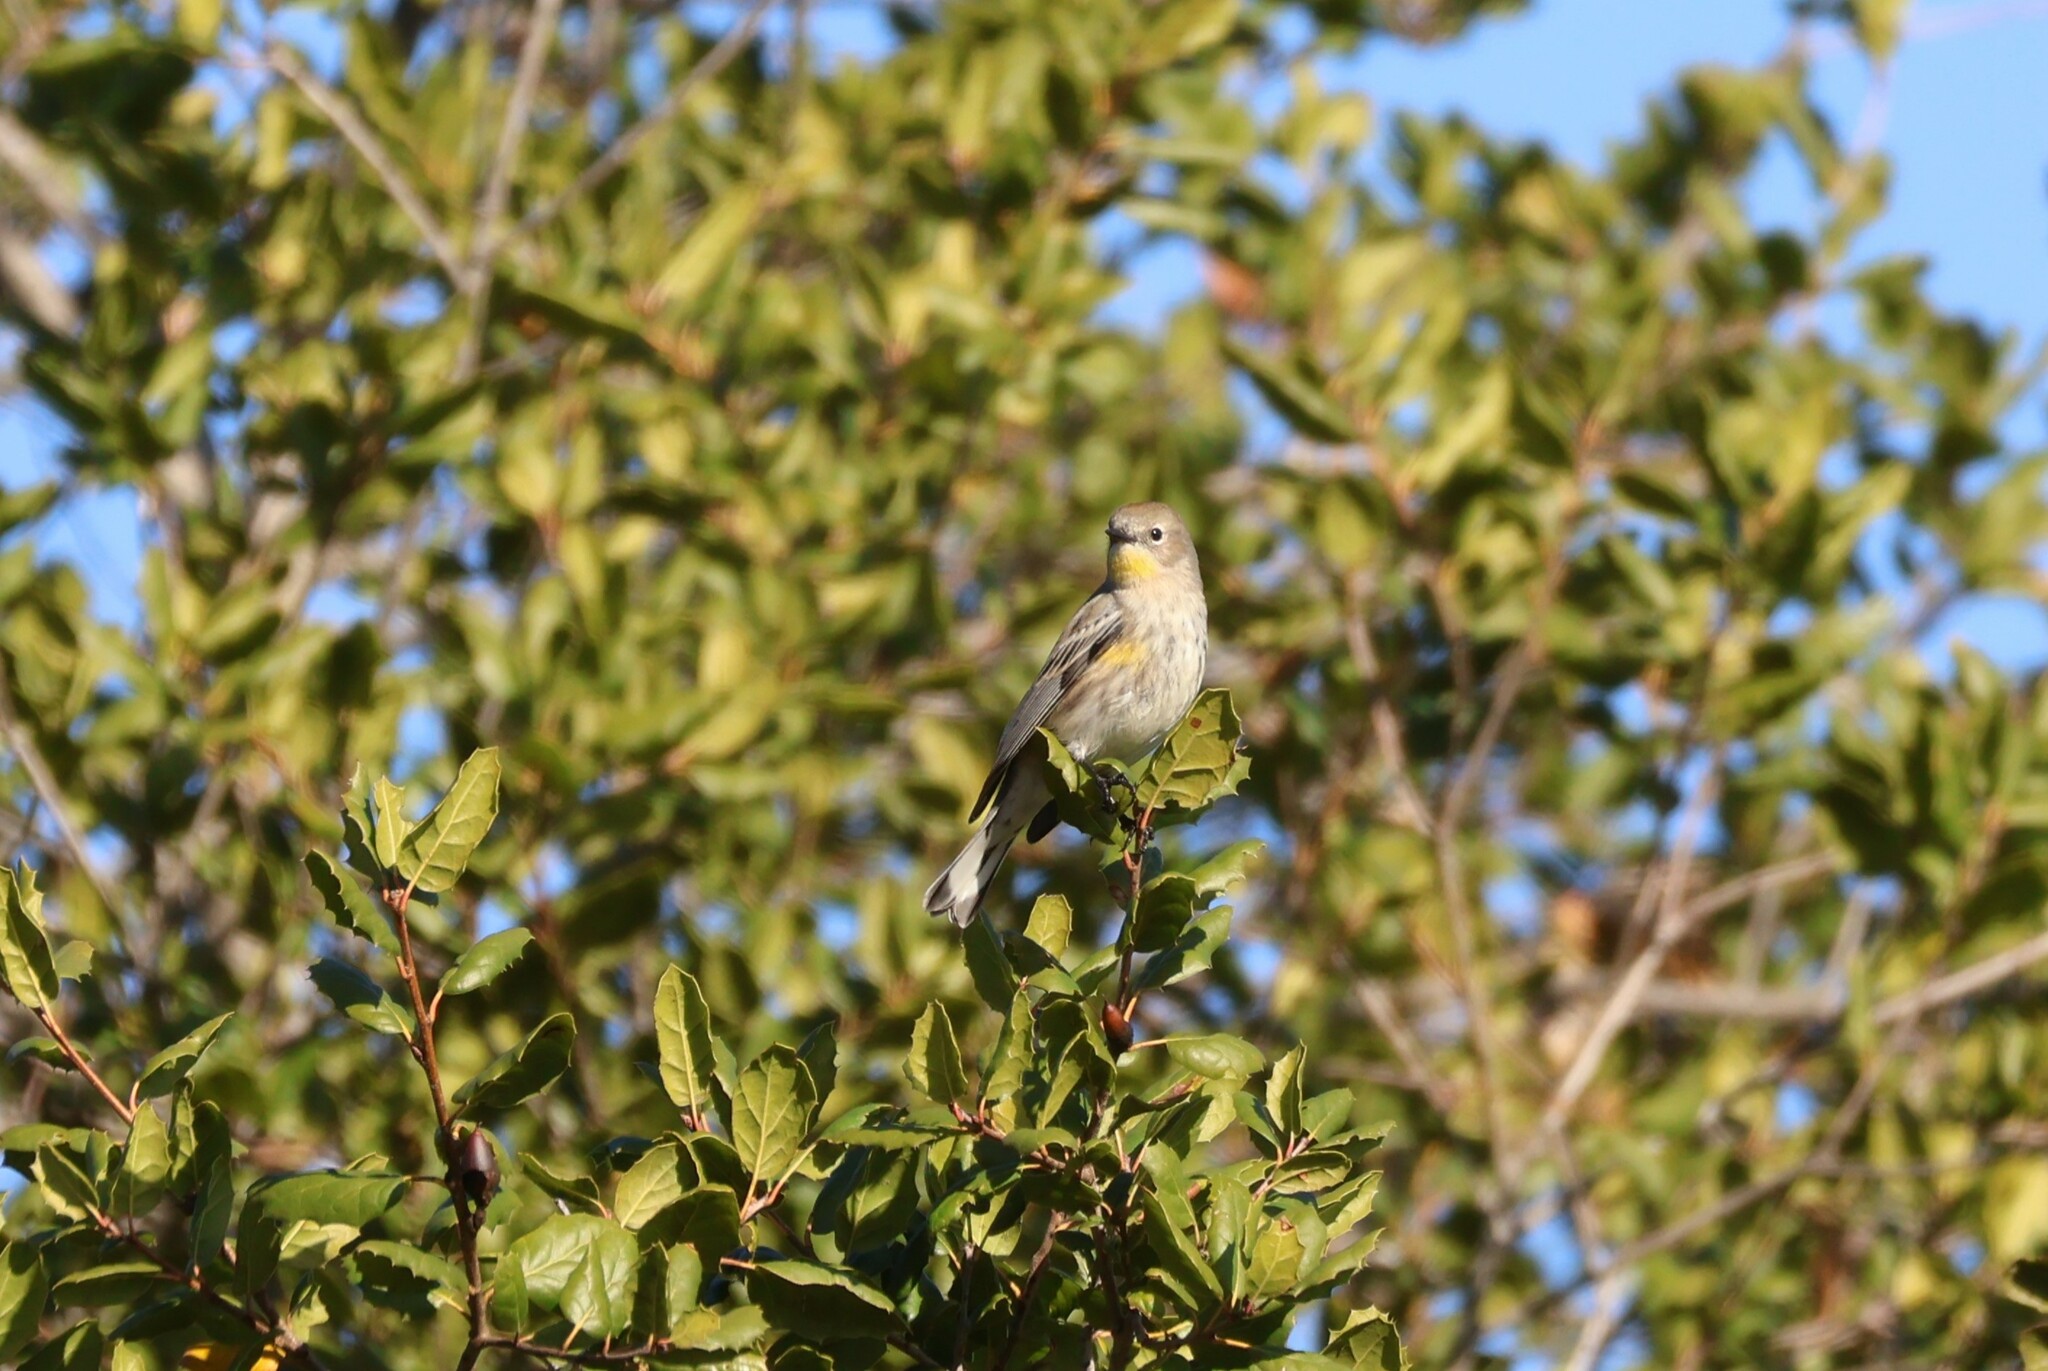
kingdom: Animalia
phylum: Chordata
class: Aves
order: Passeriformes
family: Parulidae
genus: Setophaga
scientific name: Setophaga auduboni
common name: Audubon's warbler
